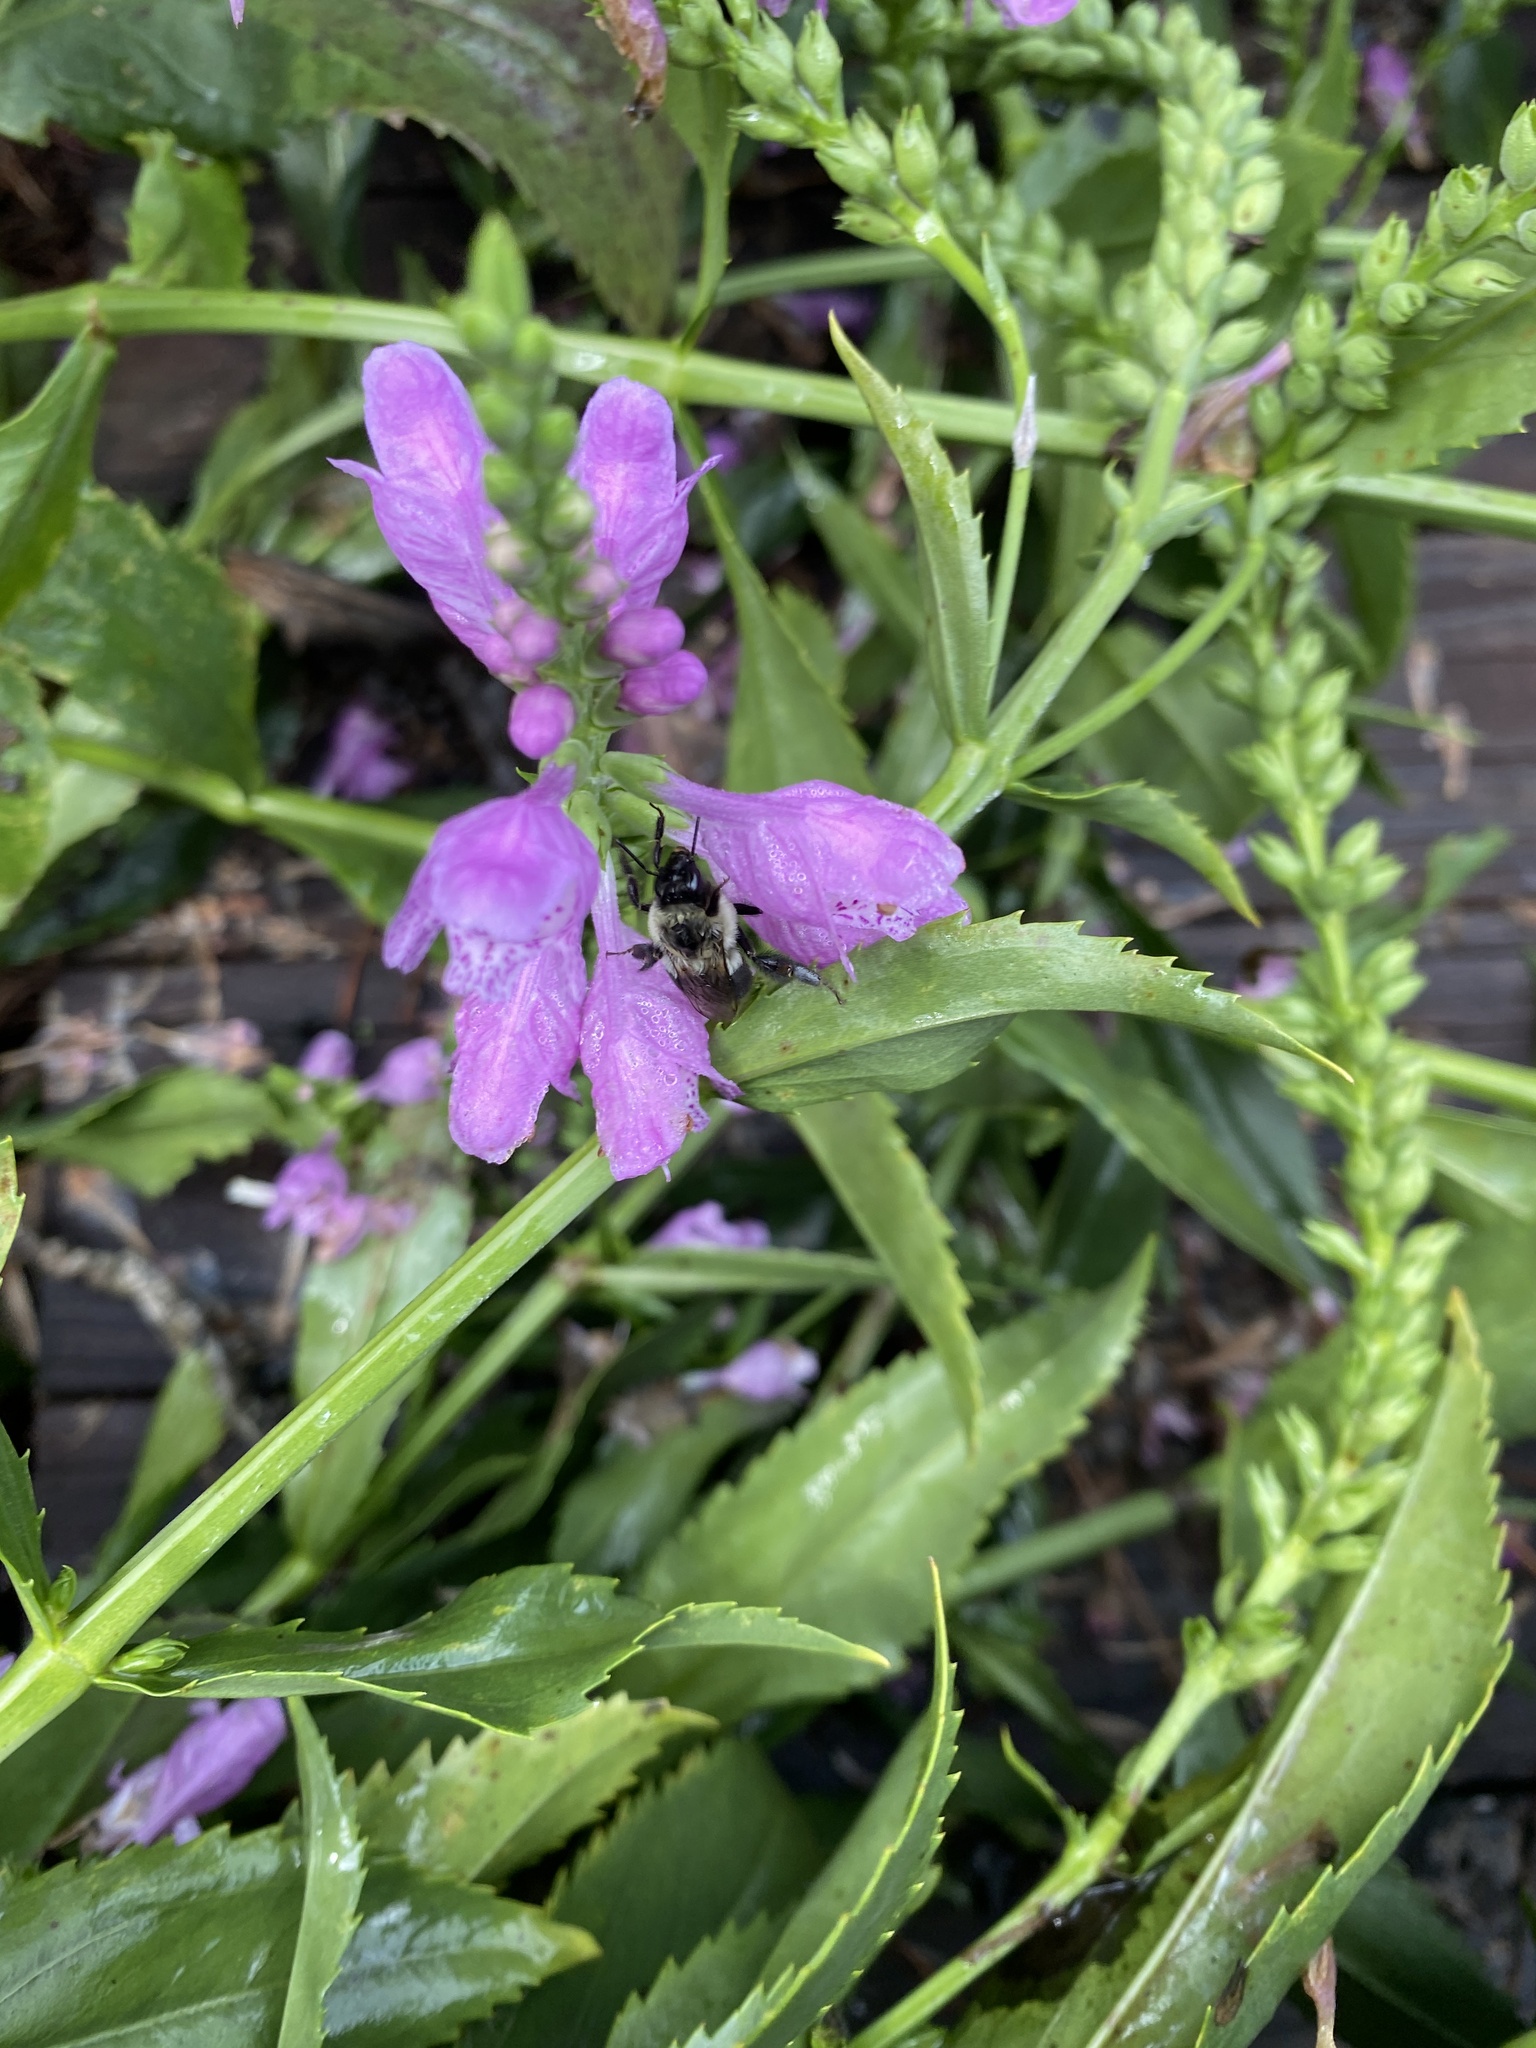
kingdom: Plantae
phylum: Tracheophyta
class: Magnoliopsida
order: Lamiales
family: Lamiaceae
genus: Physostegia
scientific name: Physostegia virginiana
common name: Obedient-plant
